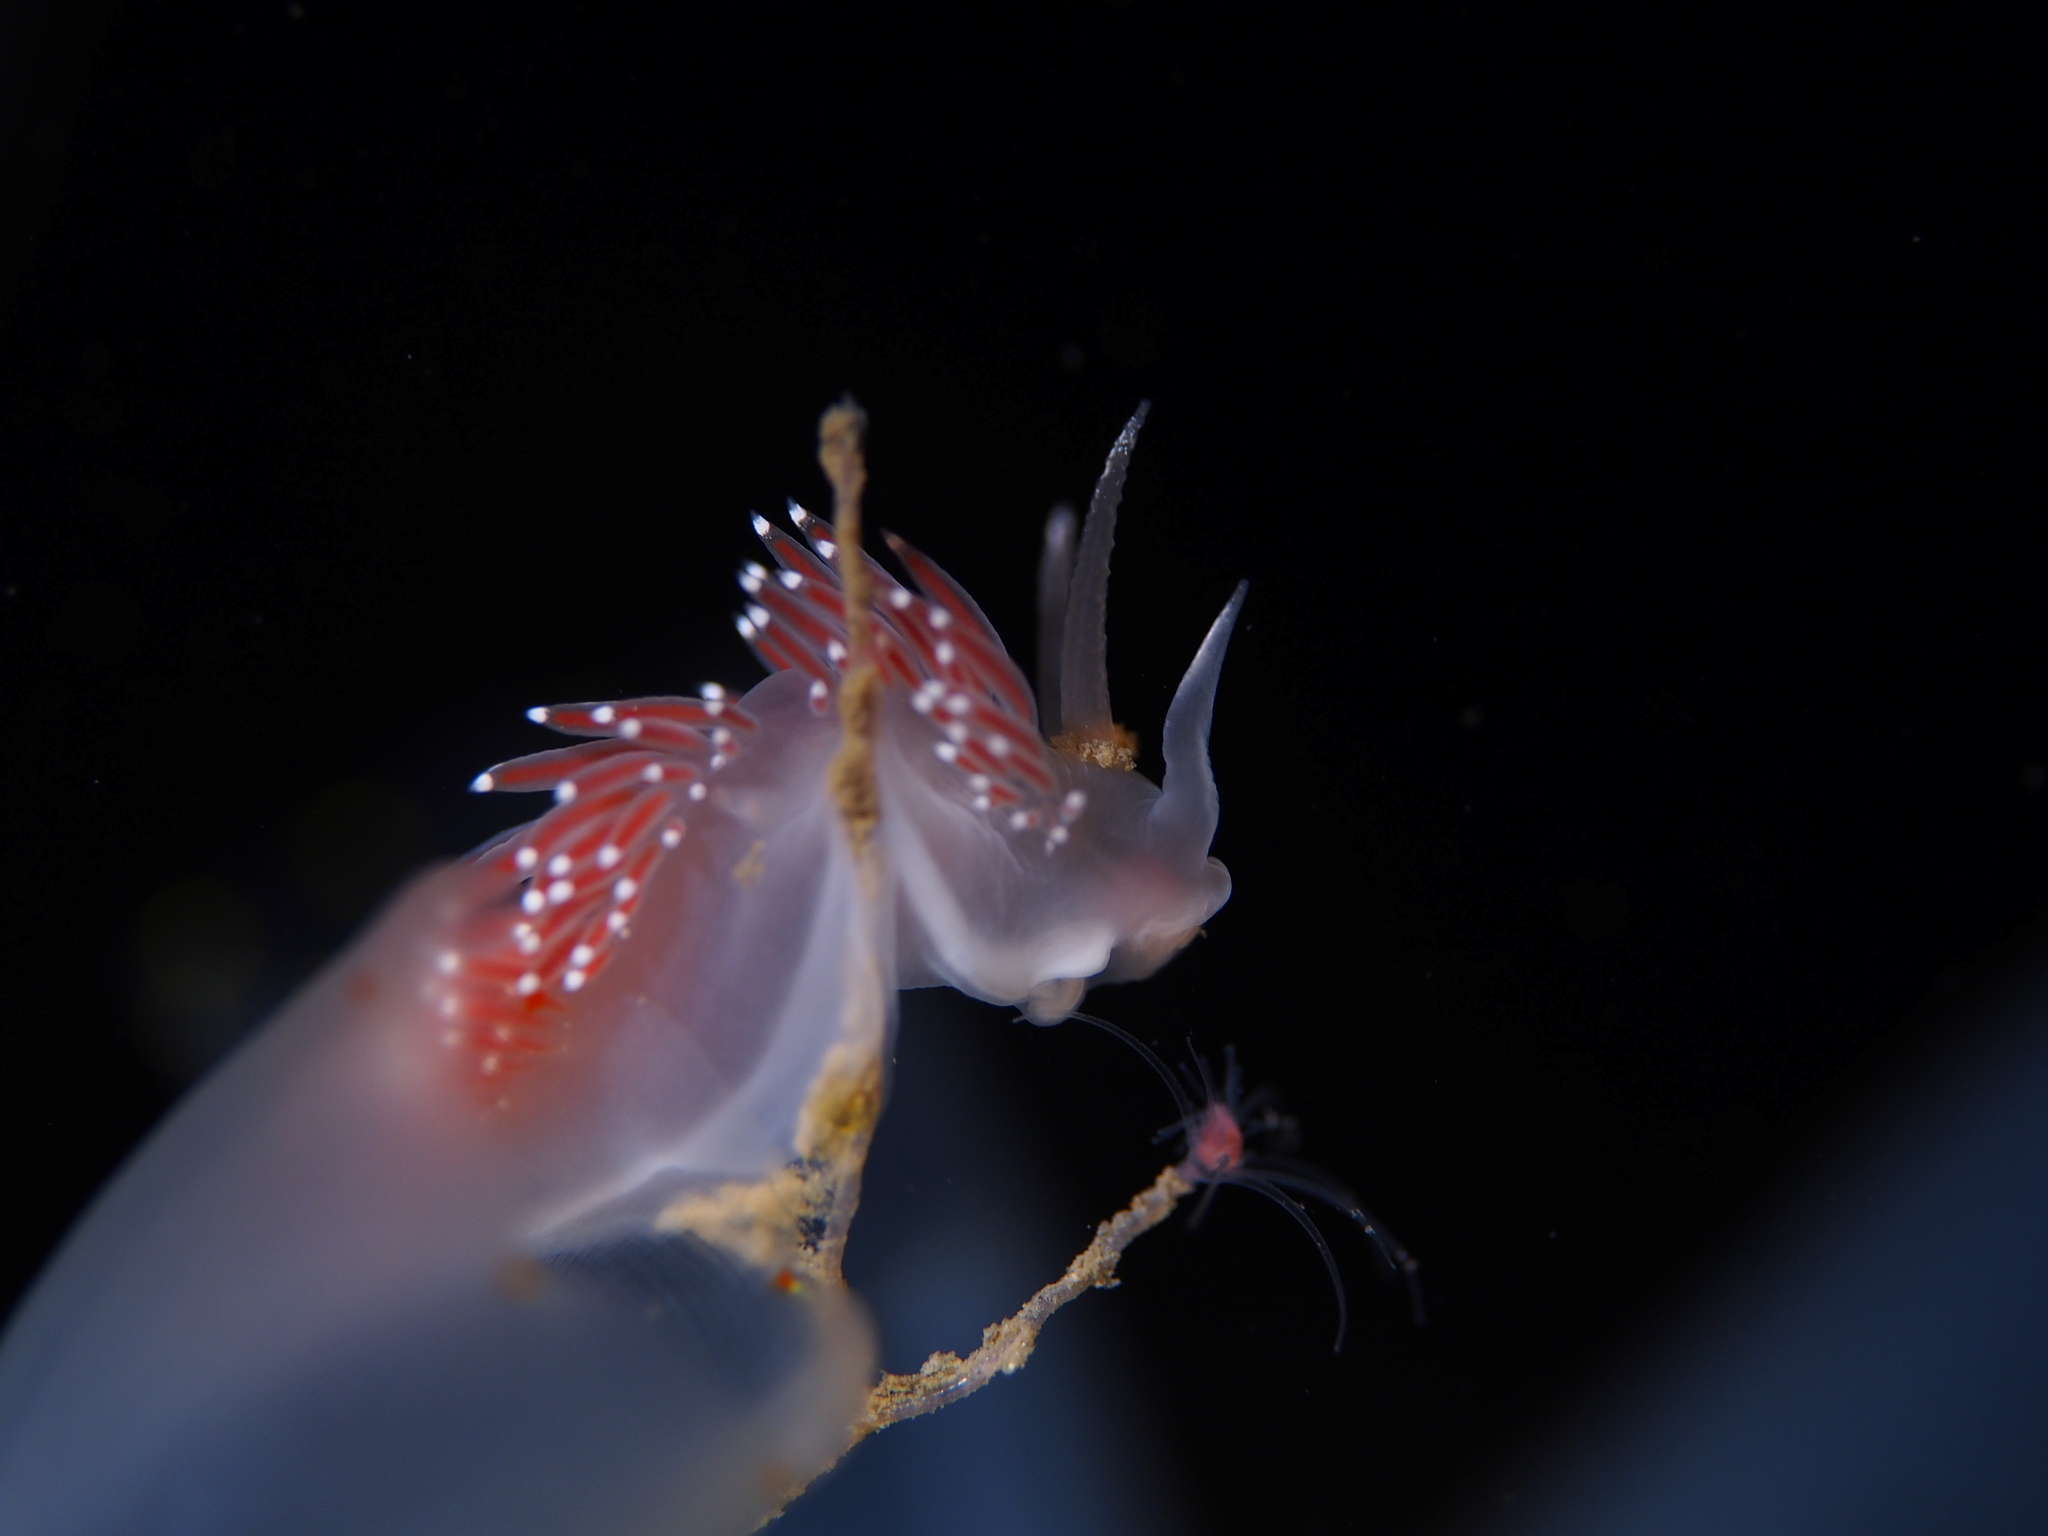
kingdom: Animalia
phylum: Mollusca
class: Gastropoda
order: Nudibranchia
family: Coryphellidae
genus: Coryphella
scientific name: Coryphella verrucosa
